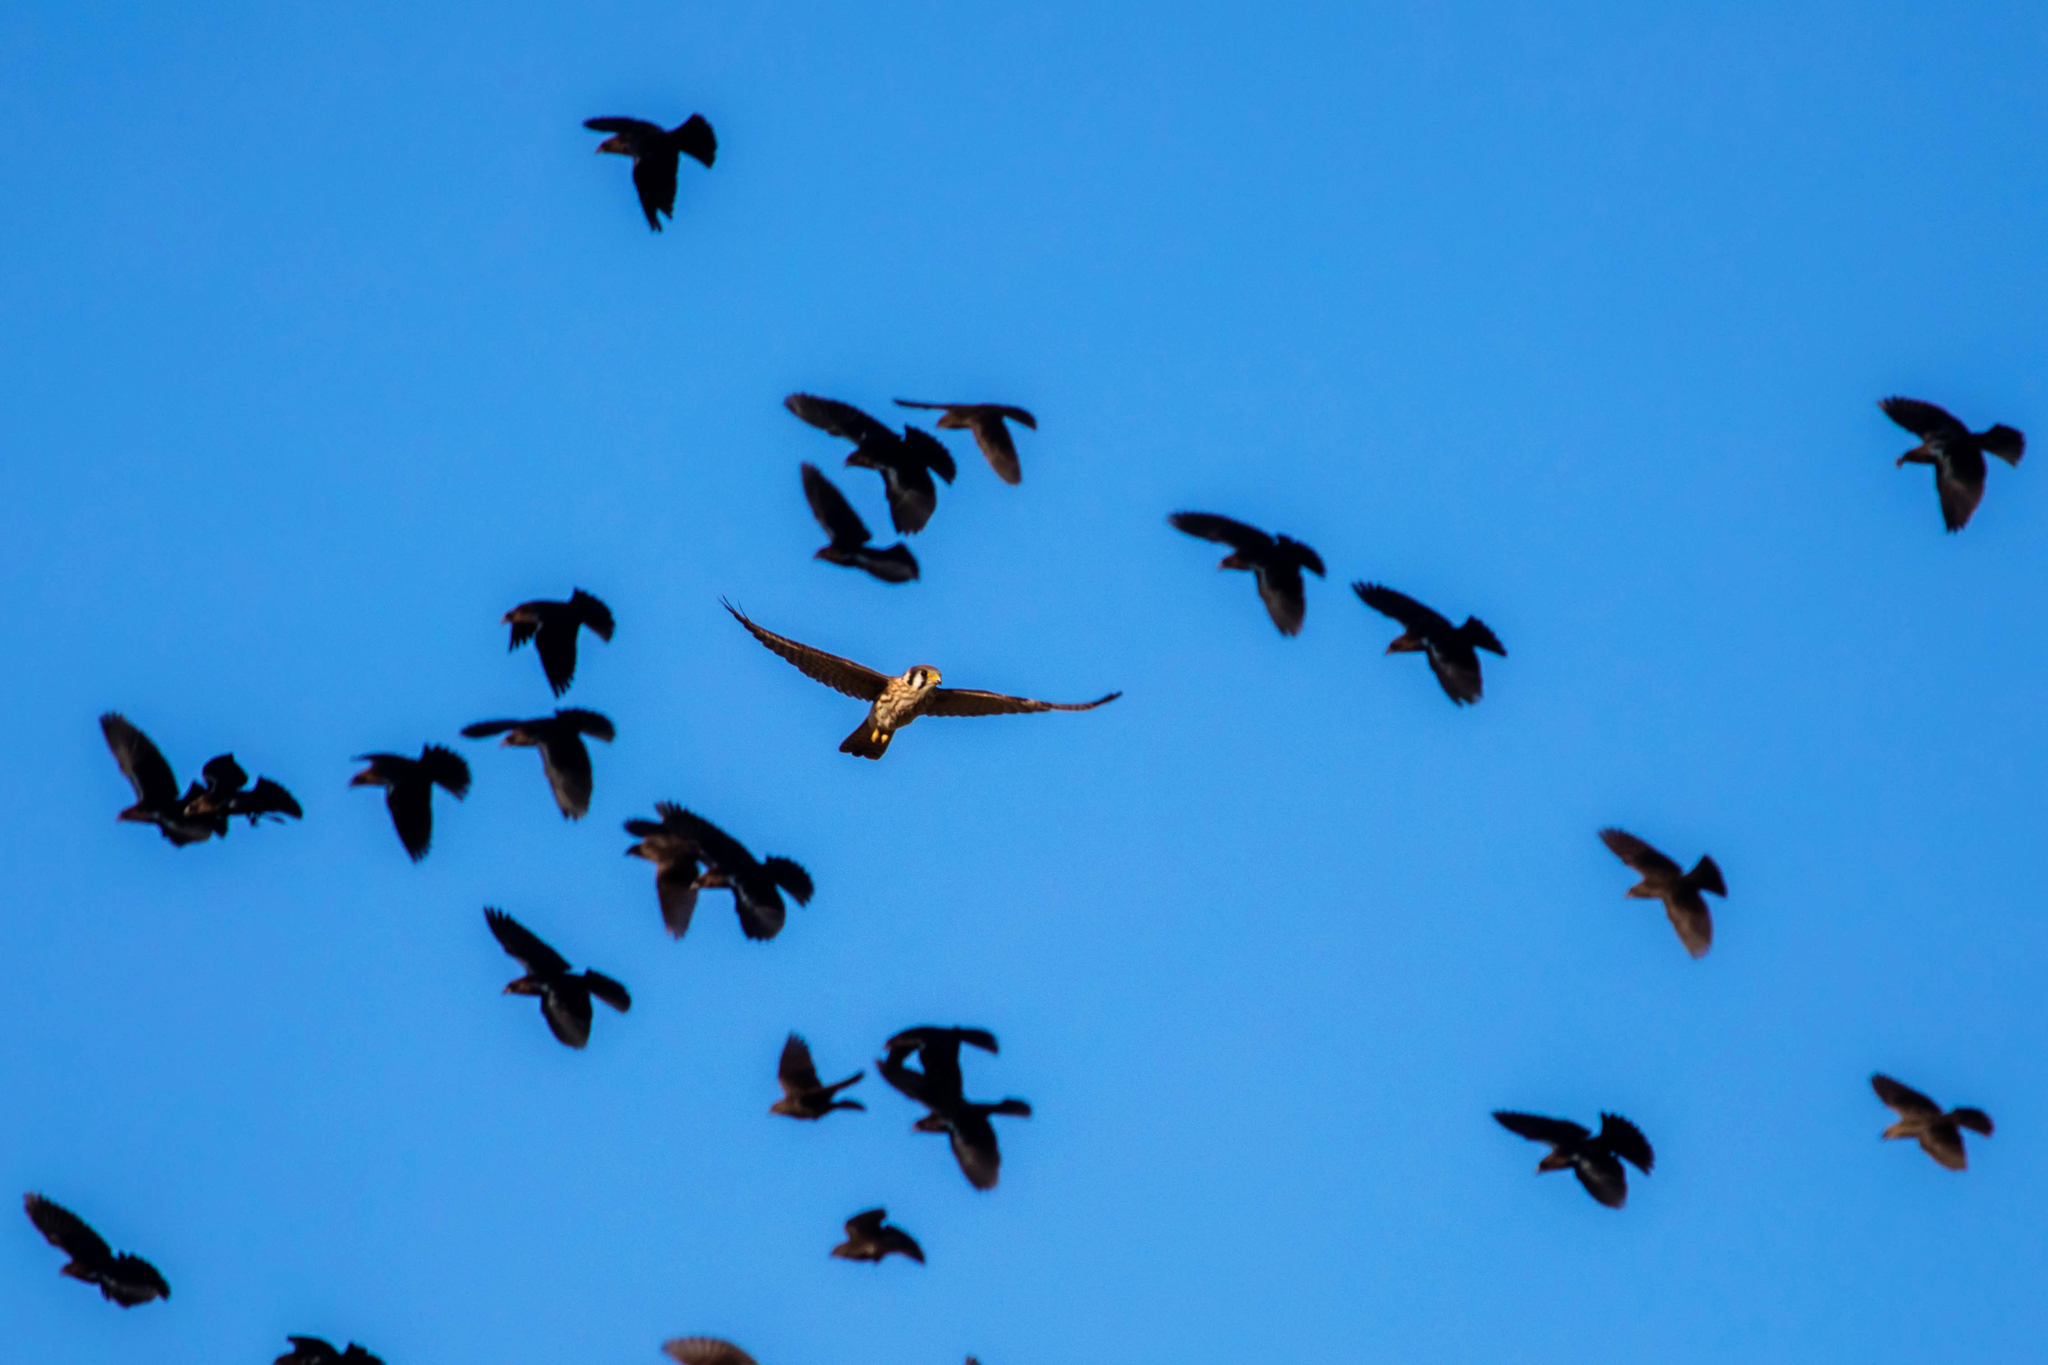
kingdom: Animalia
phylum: Chordata
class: Aves
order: Falconiformes
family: Falconidae
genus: Falco
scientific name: Falco sparverius
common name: American kestrel
